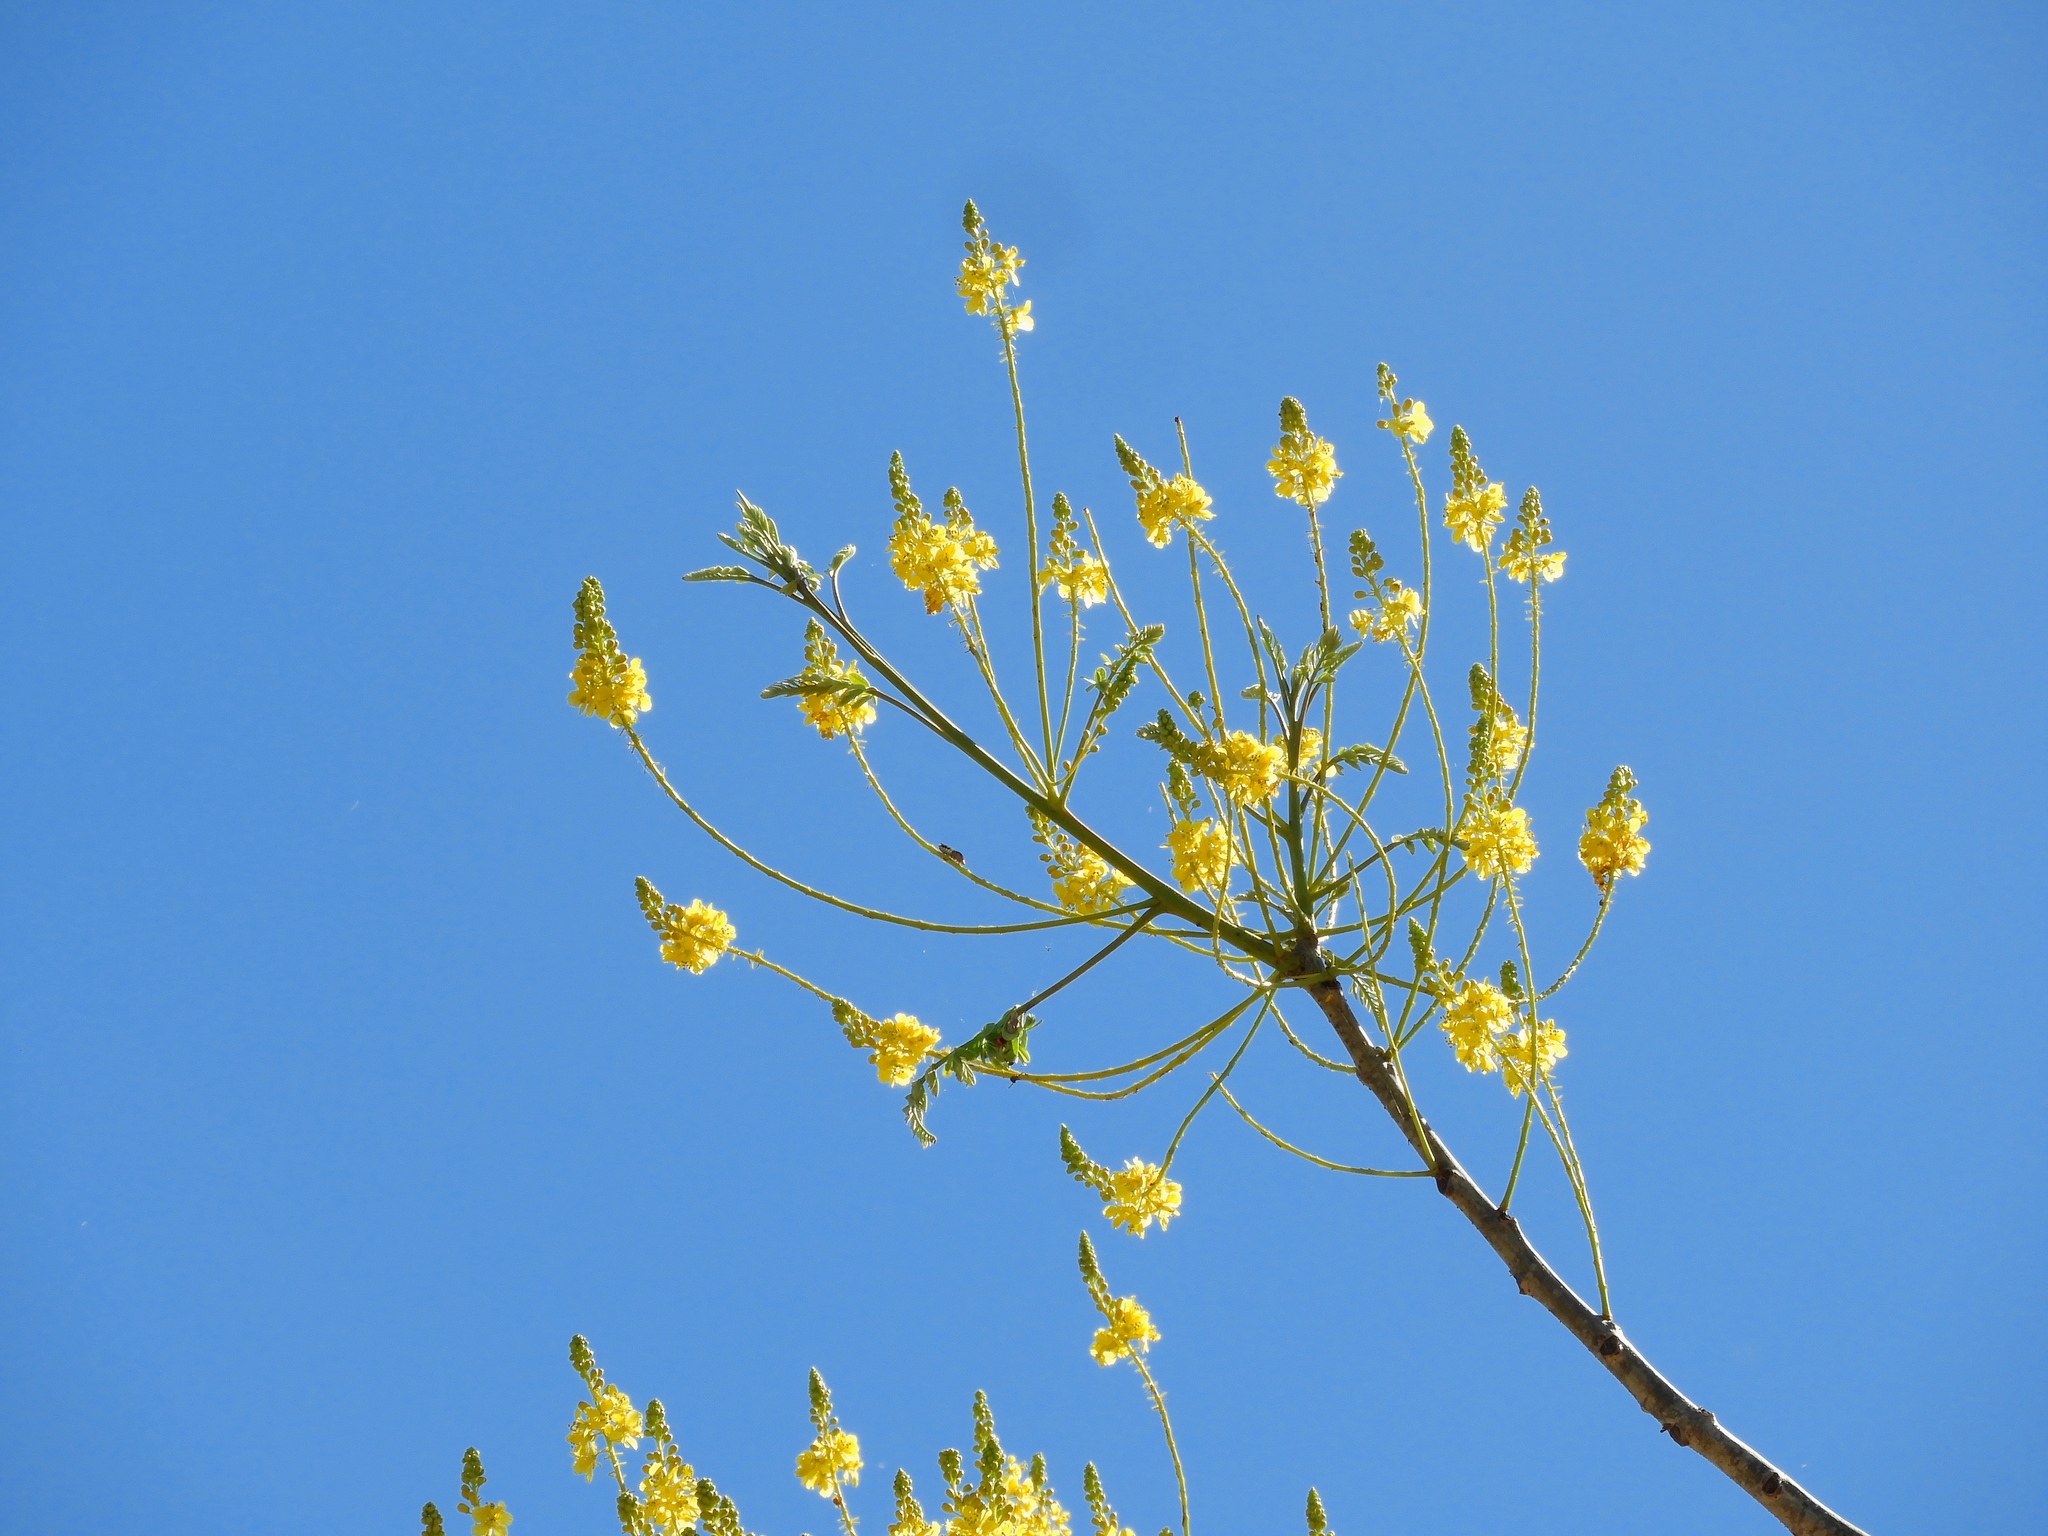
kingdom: Plantae
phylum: Tracheophyta
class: Magnoliopsida
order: Fabales
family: Fabaceae
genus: Conzattia
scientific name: Conzattia sericea
